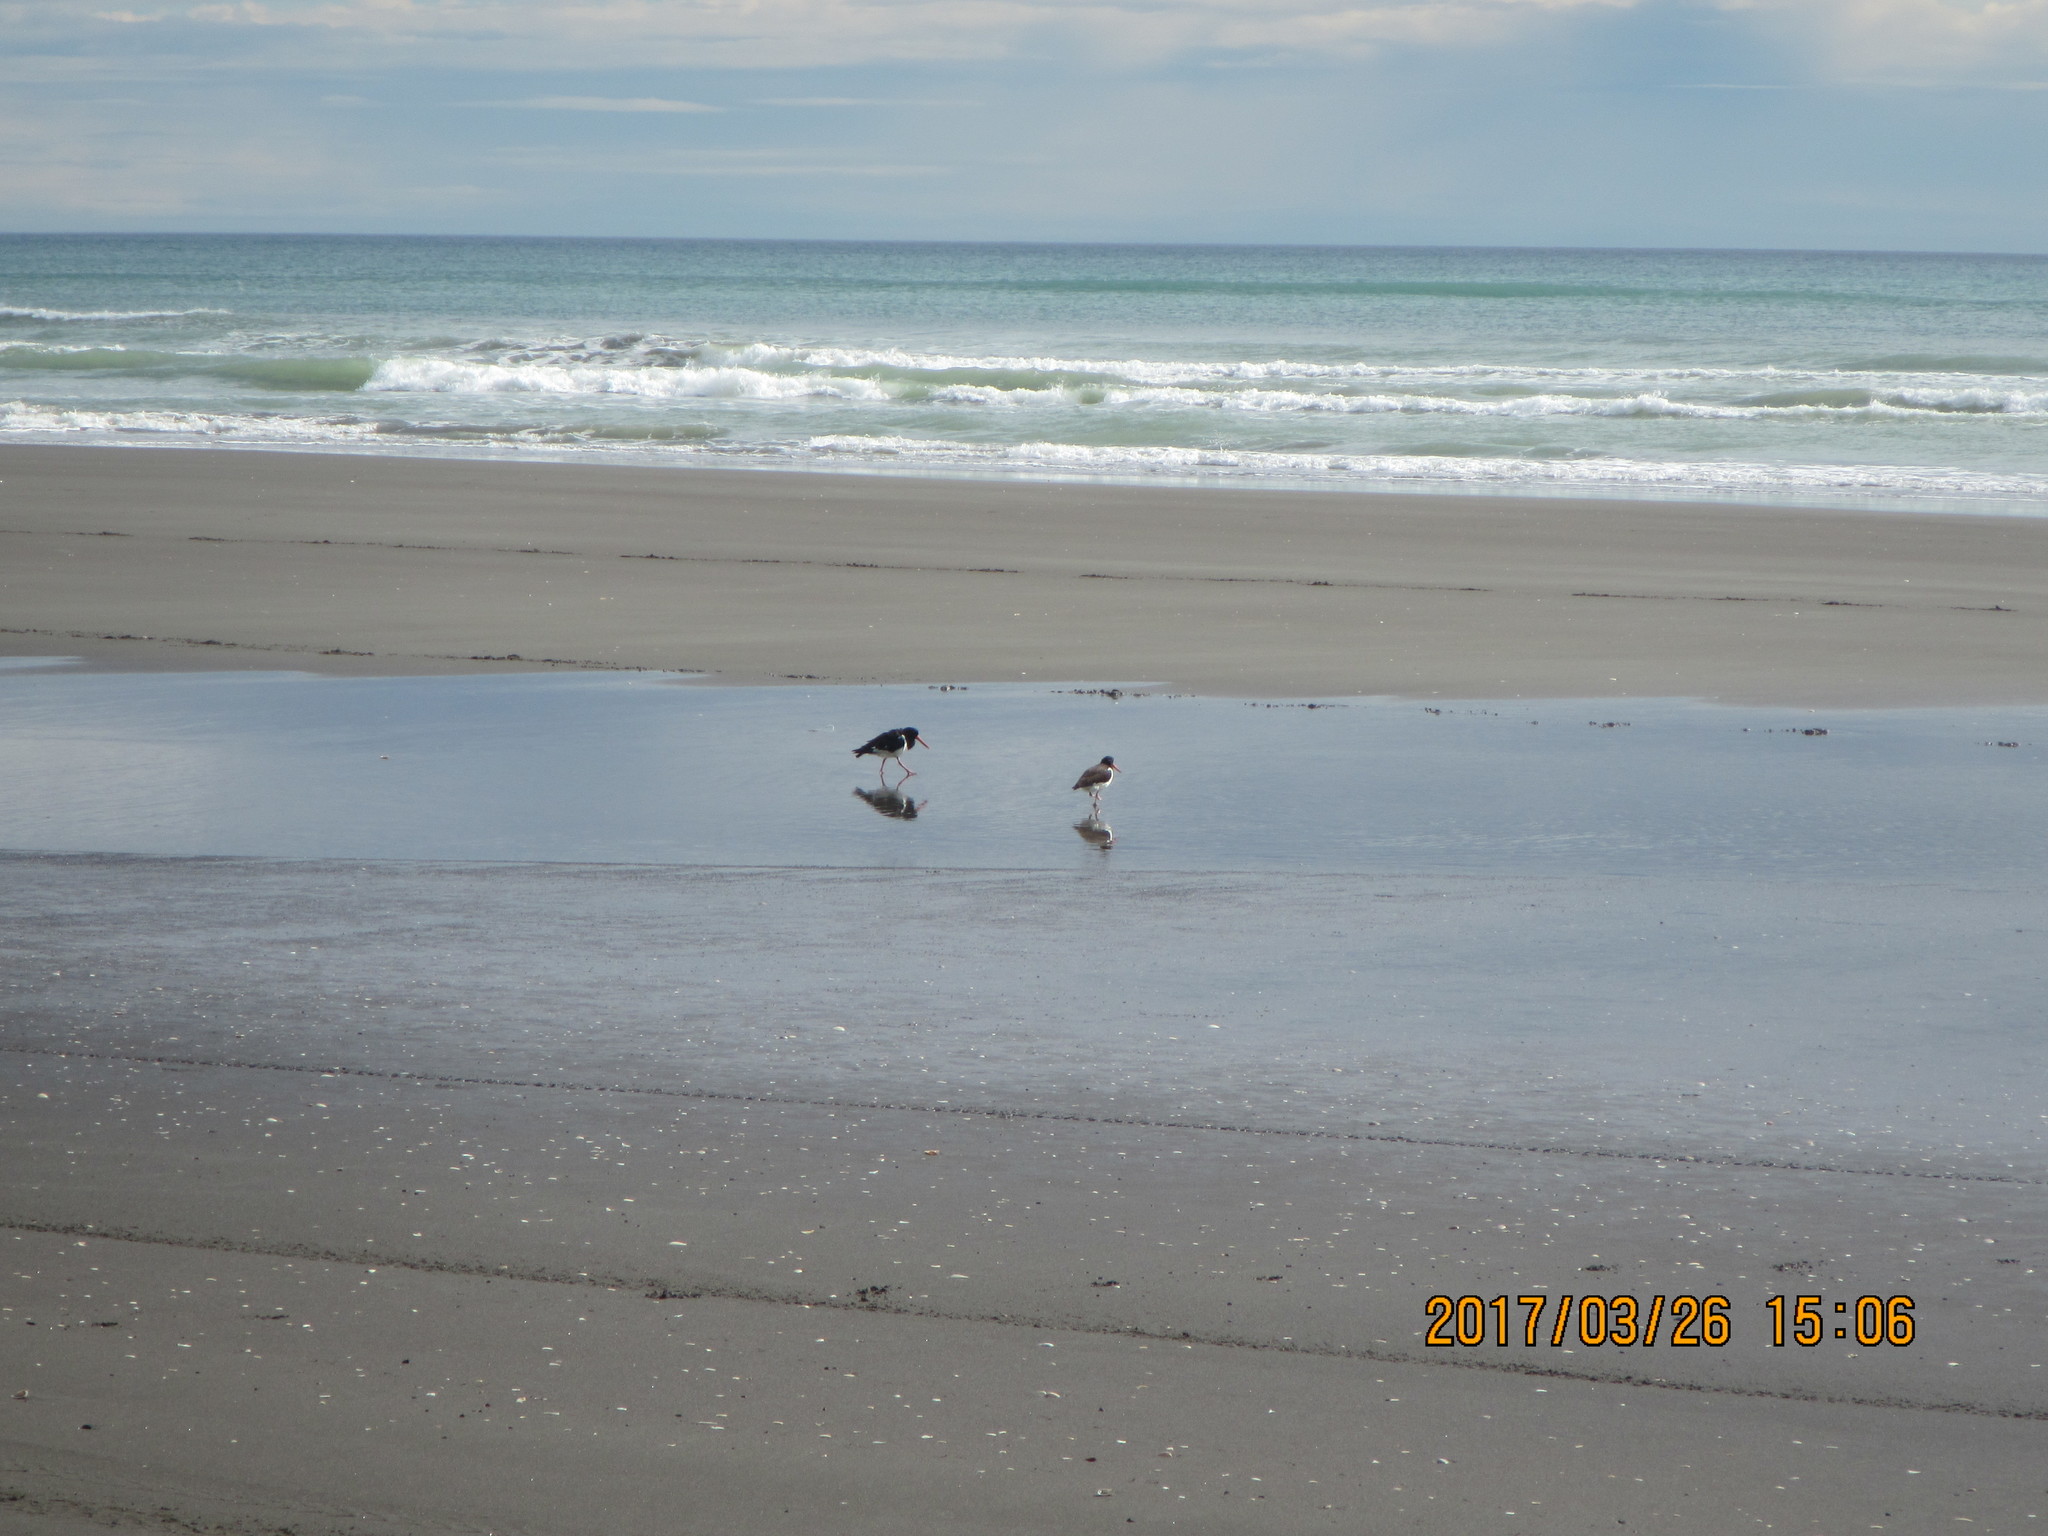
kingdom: Animalia
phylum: Chordata
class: Aves
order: Charadriiformes
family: Haematopodidae
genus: Haematopus
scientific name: Haematopus finschi
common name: South island oystercatcher
